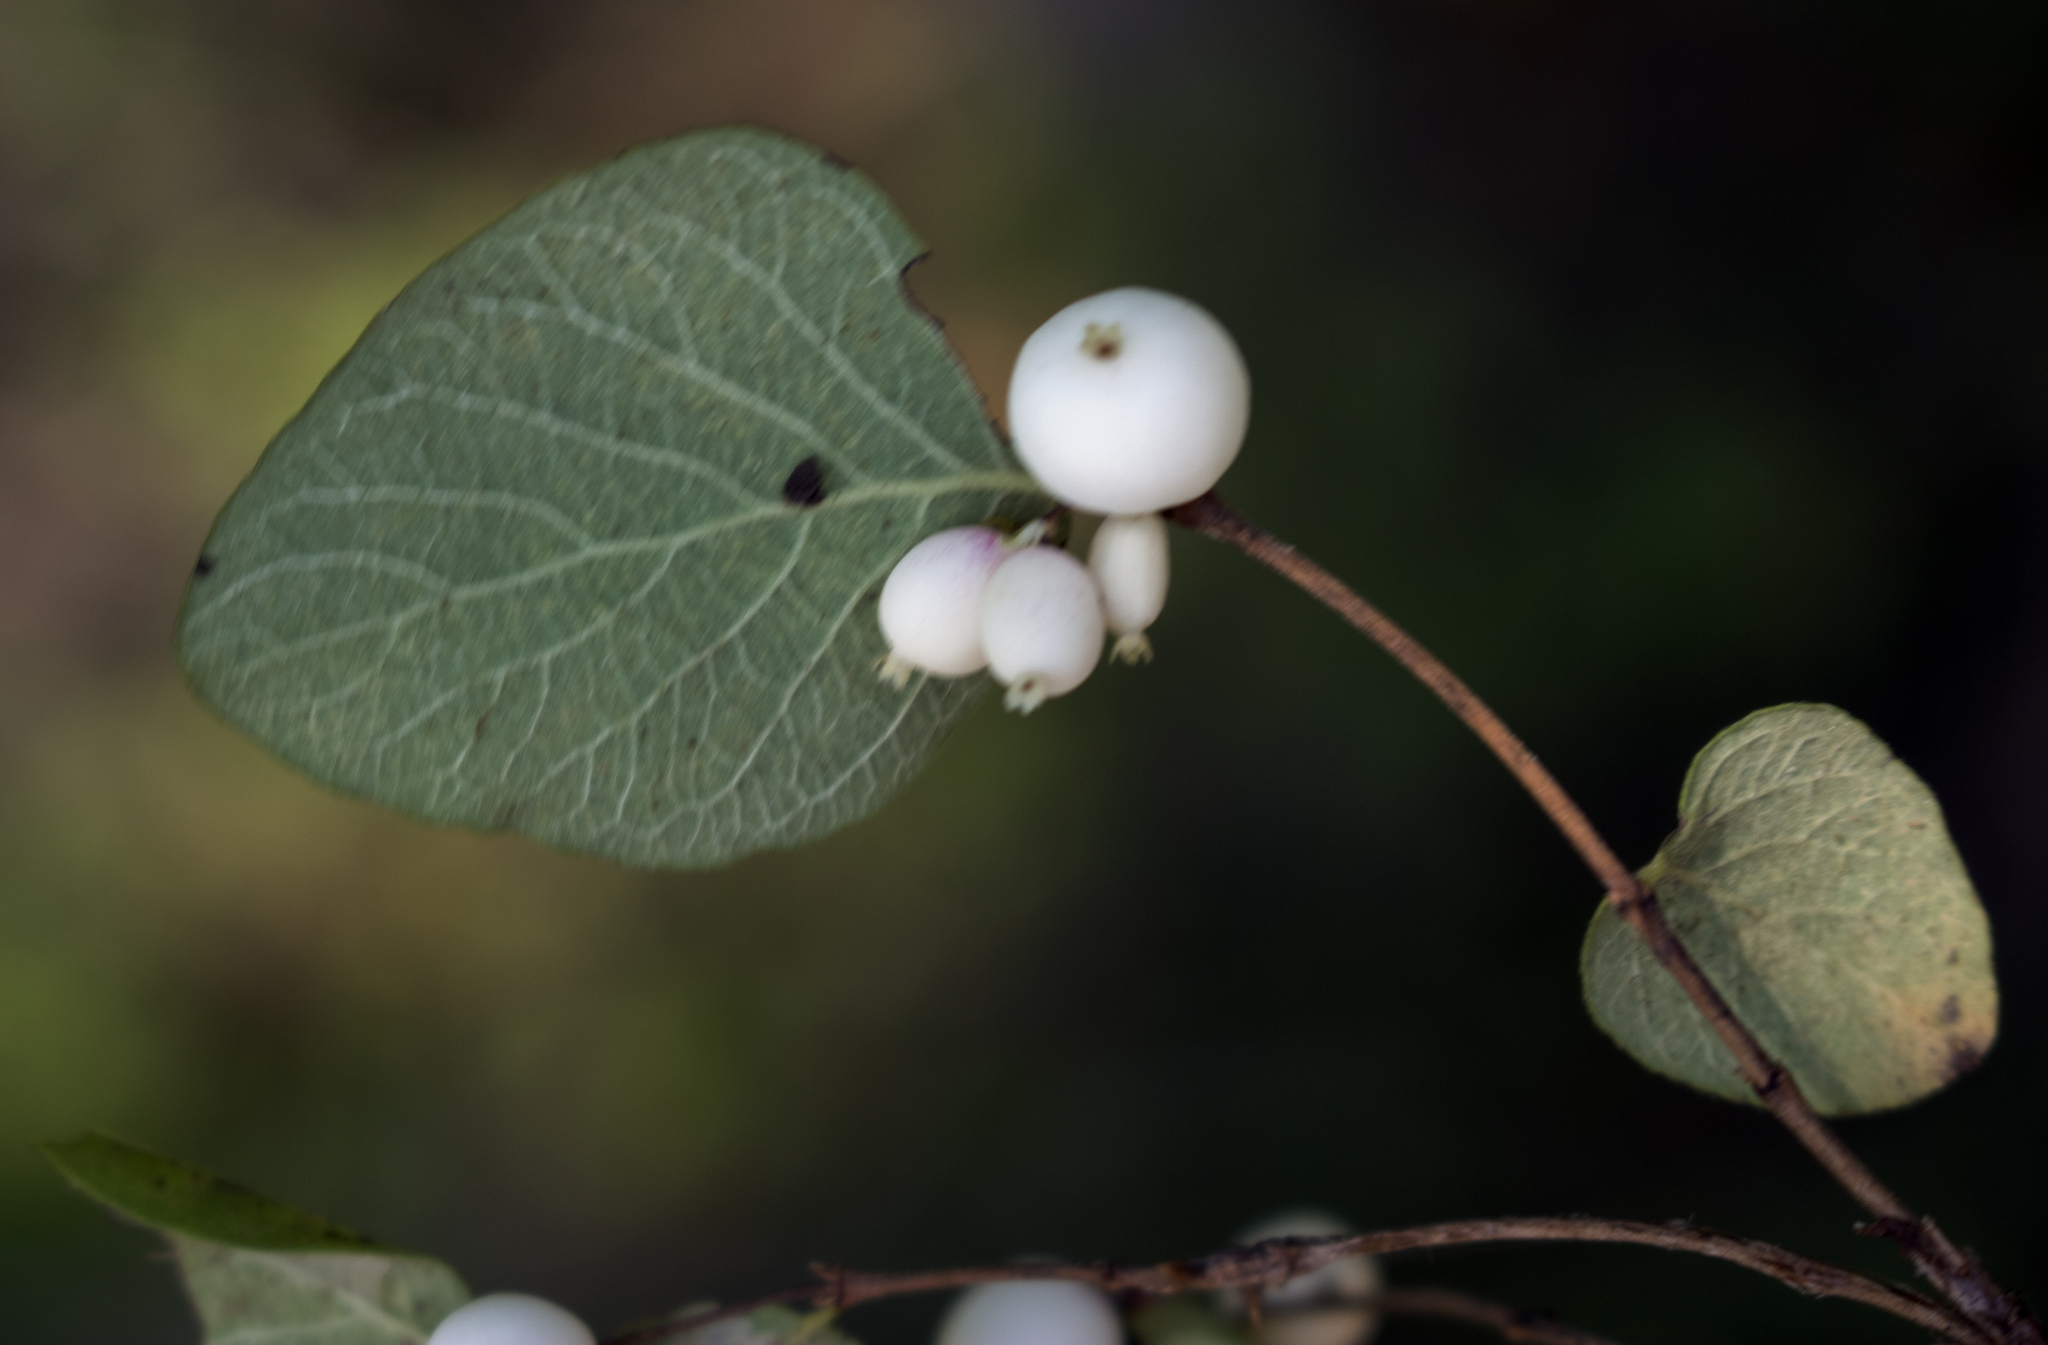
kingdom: Plantae
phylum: Tracheophyta
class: Magnoliopsida
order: Dipsacales
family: Caprifoliaceae
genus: Symphoricarpos
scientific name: Symphoricarpos albus
